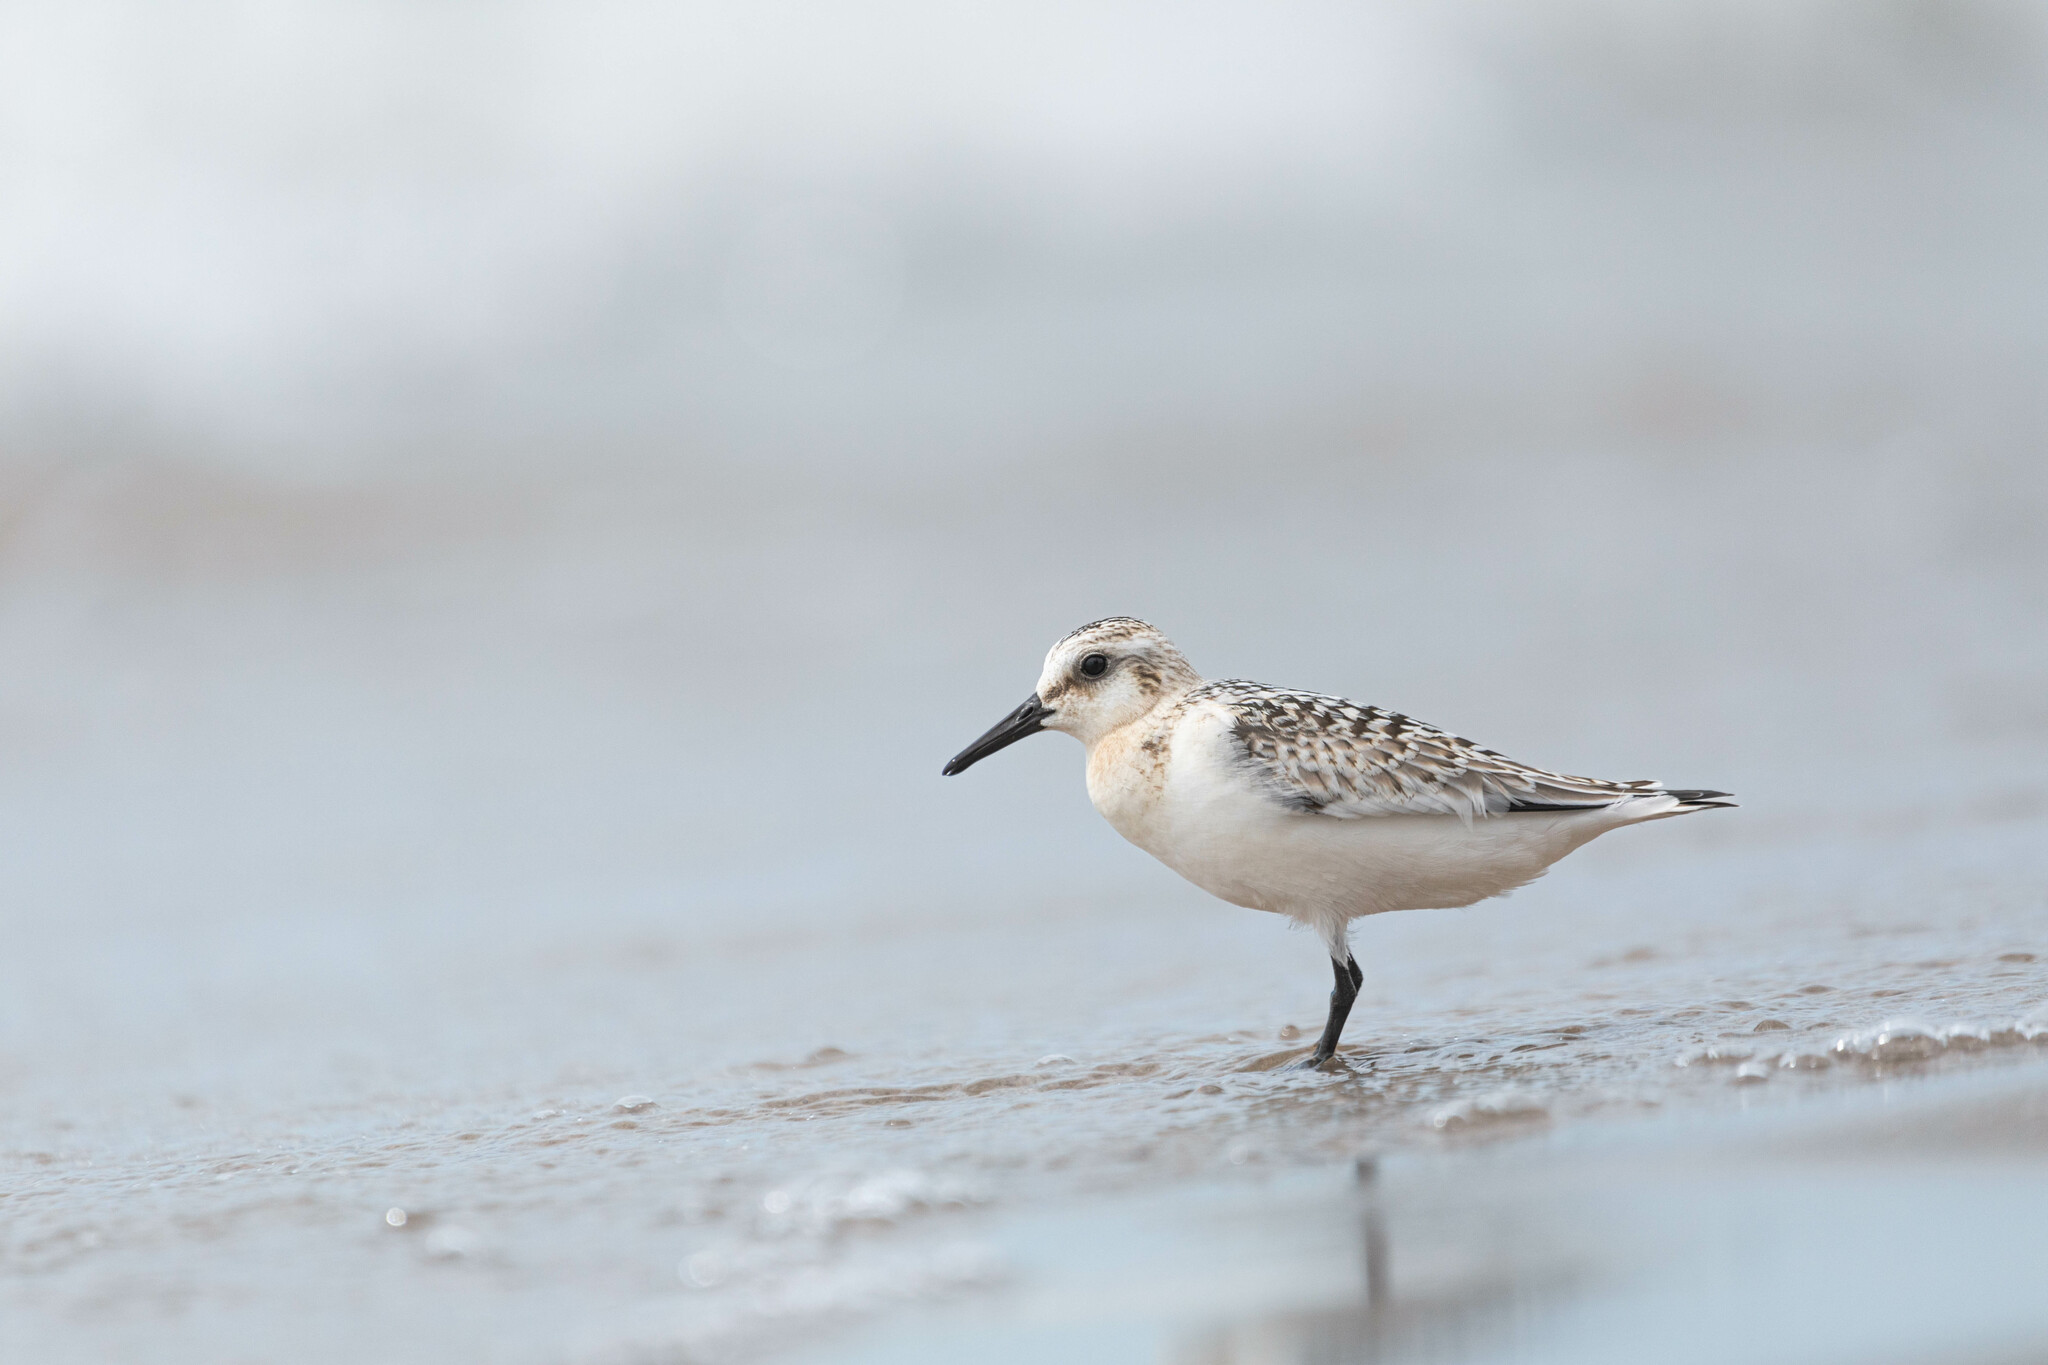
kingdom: Animalia
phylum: Chordata
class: Aves
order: Charadriiformes
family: Scolopacidae
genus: Calidris
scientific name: Calidris alba
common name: Sanderling
